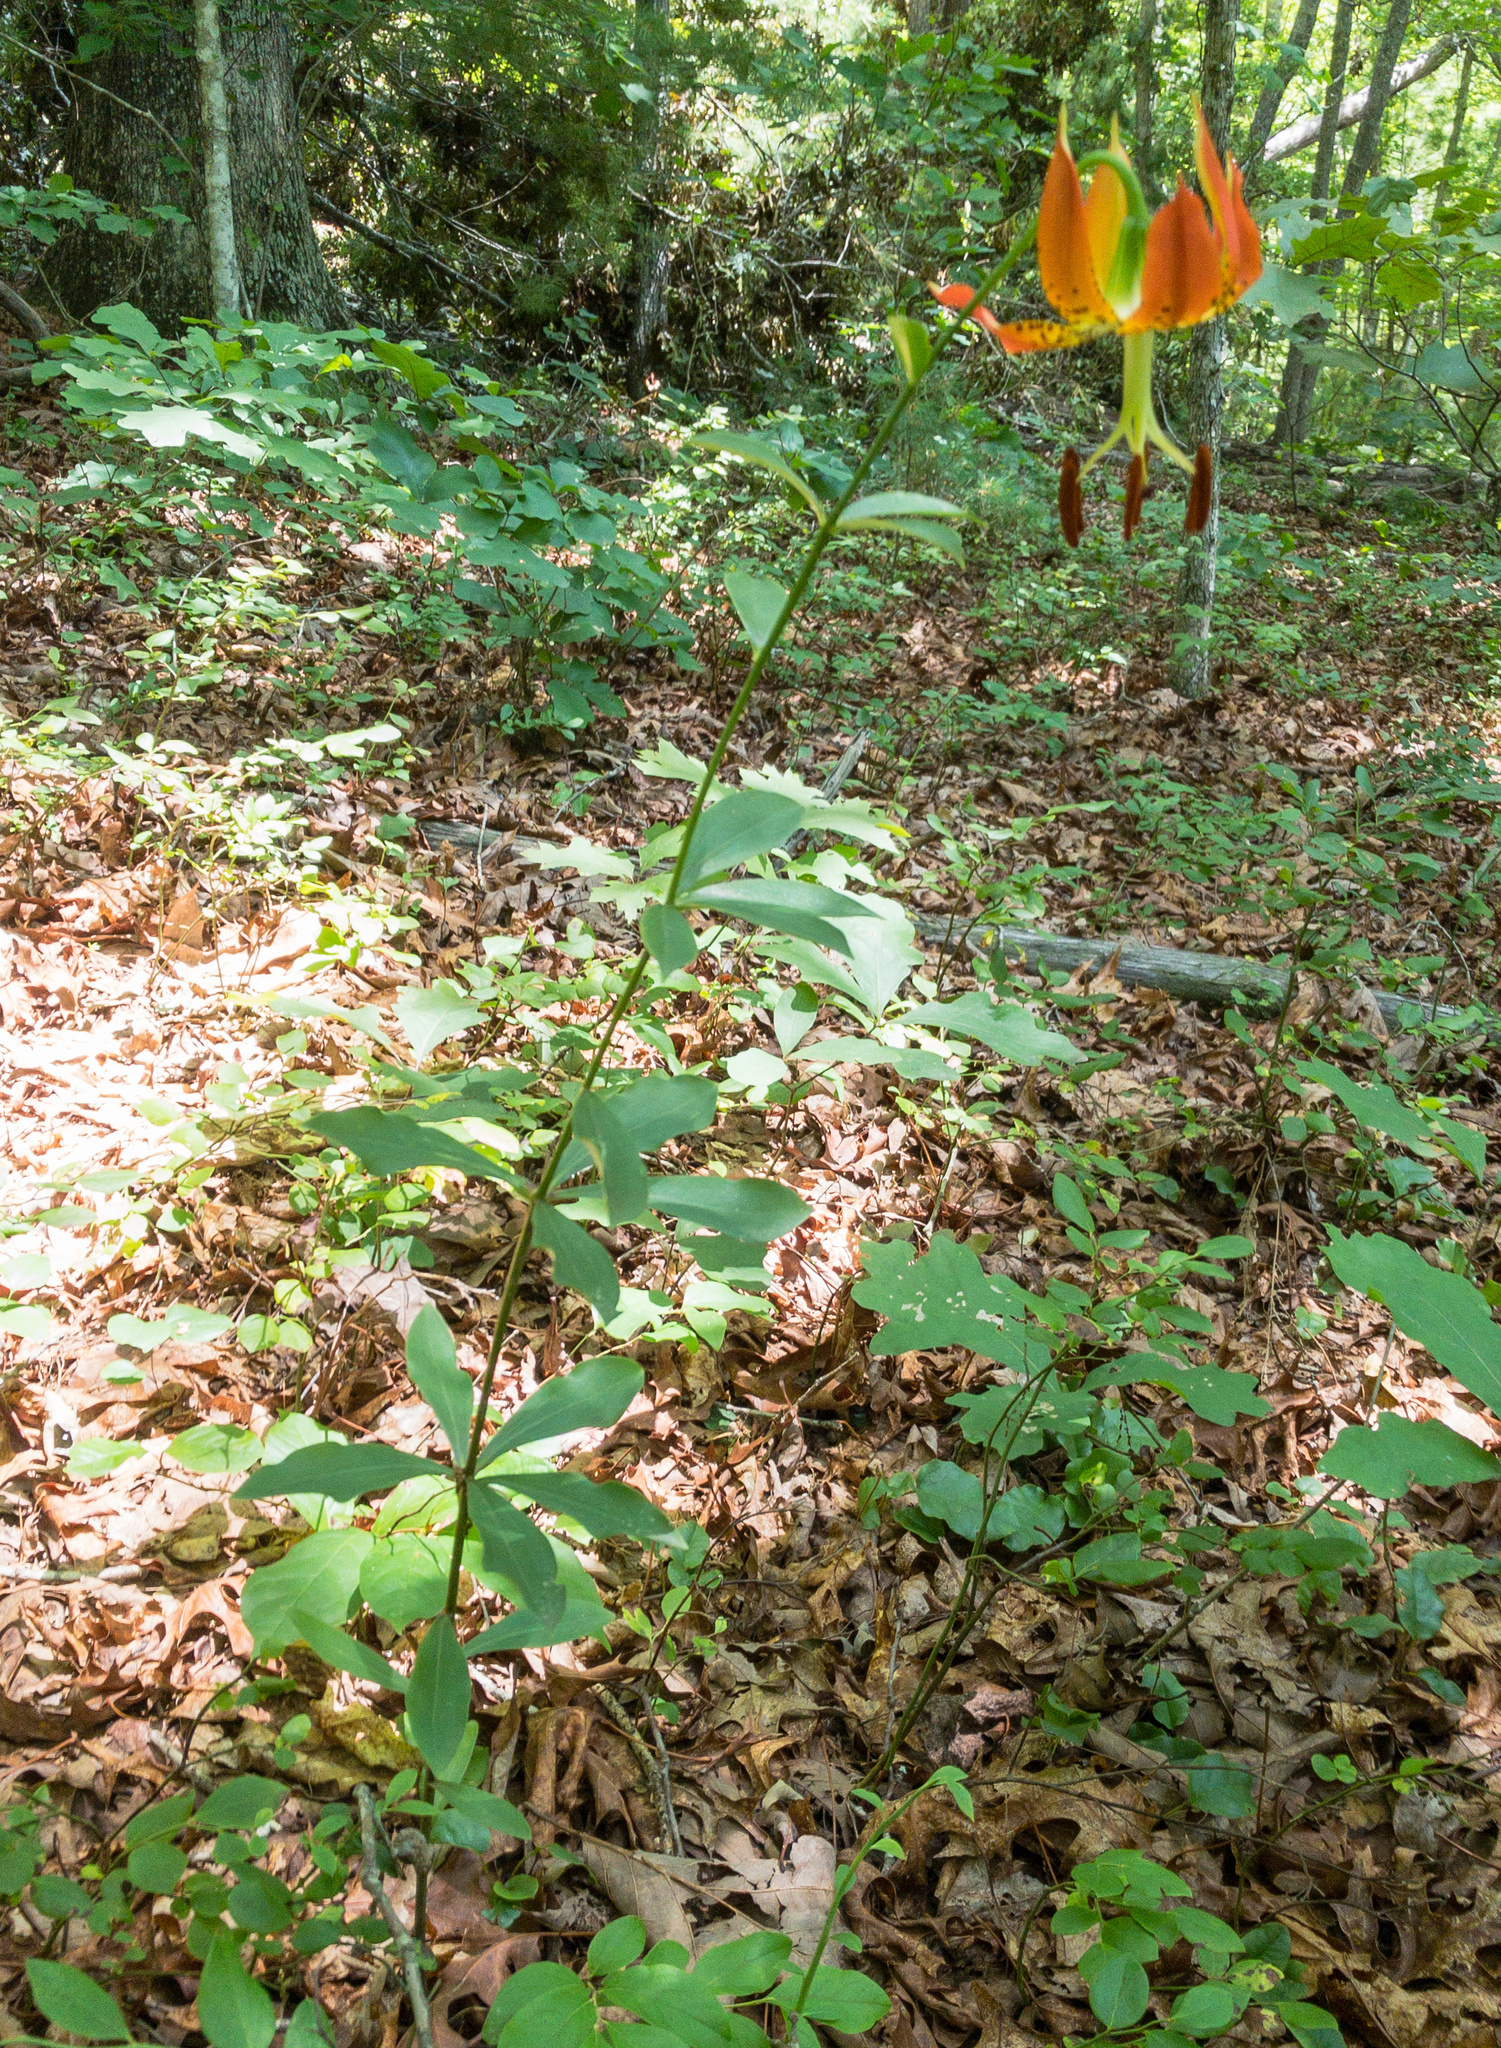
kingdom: Plantae
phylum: Tracheophyta
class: Liliopsida
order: Liliales
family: Liliaceae
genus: Lilium
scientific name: Lilium michauxii
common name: Carolina lily
